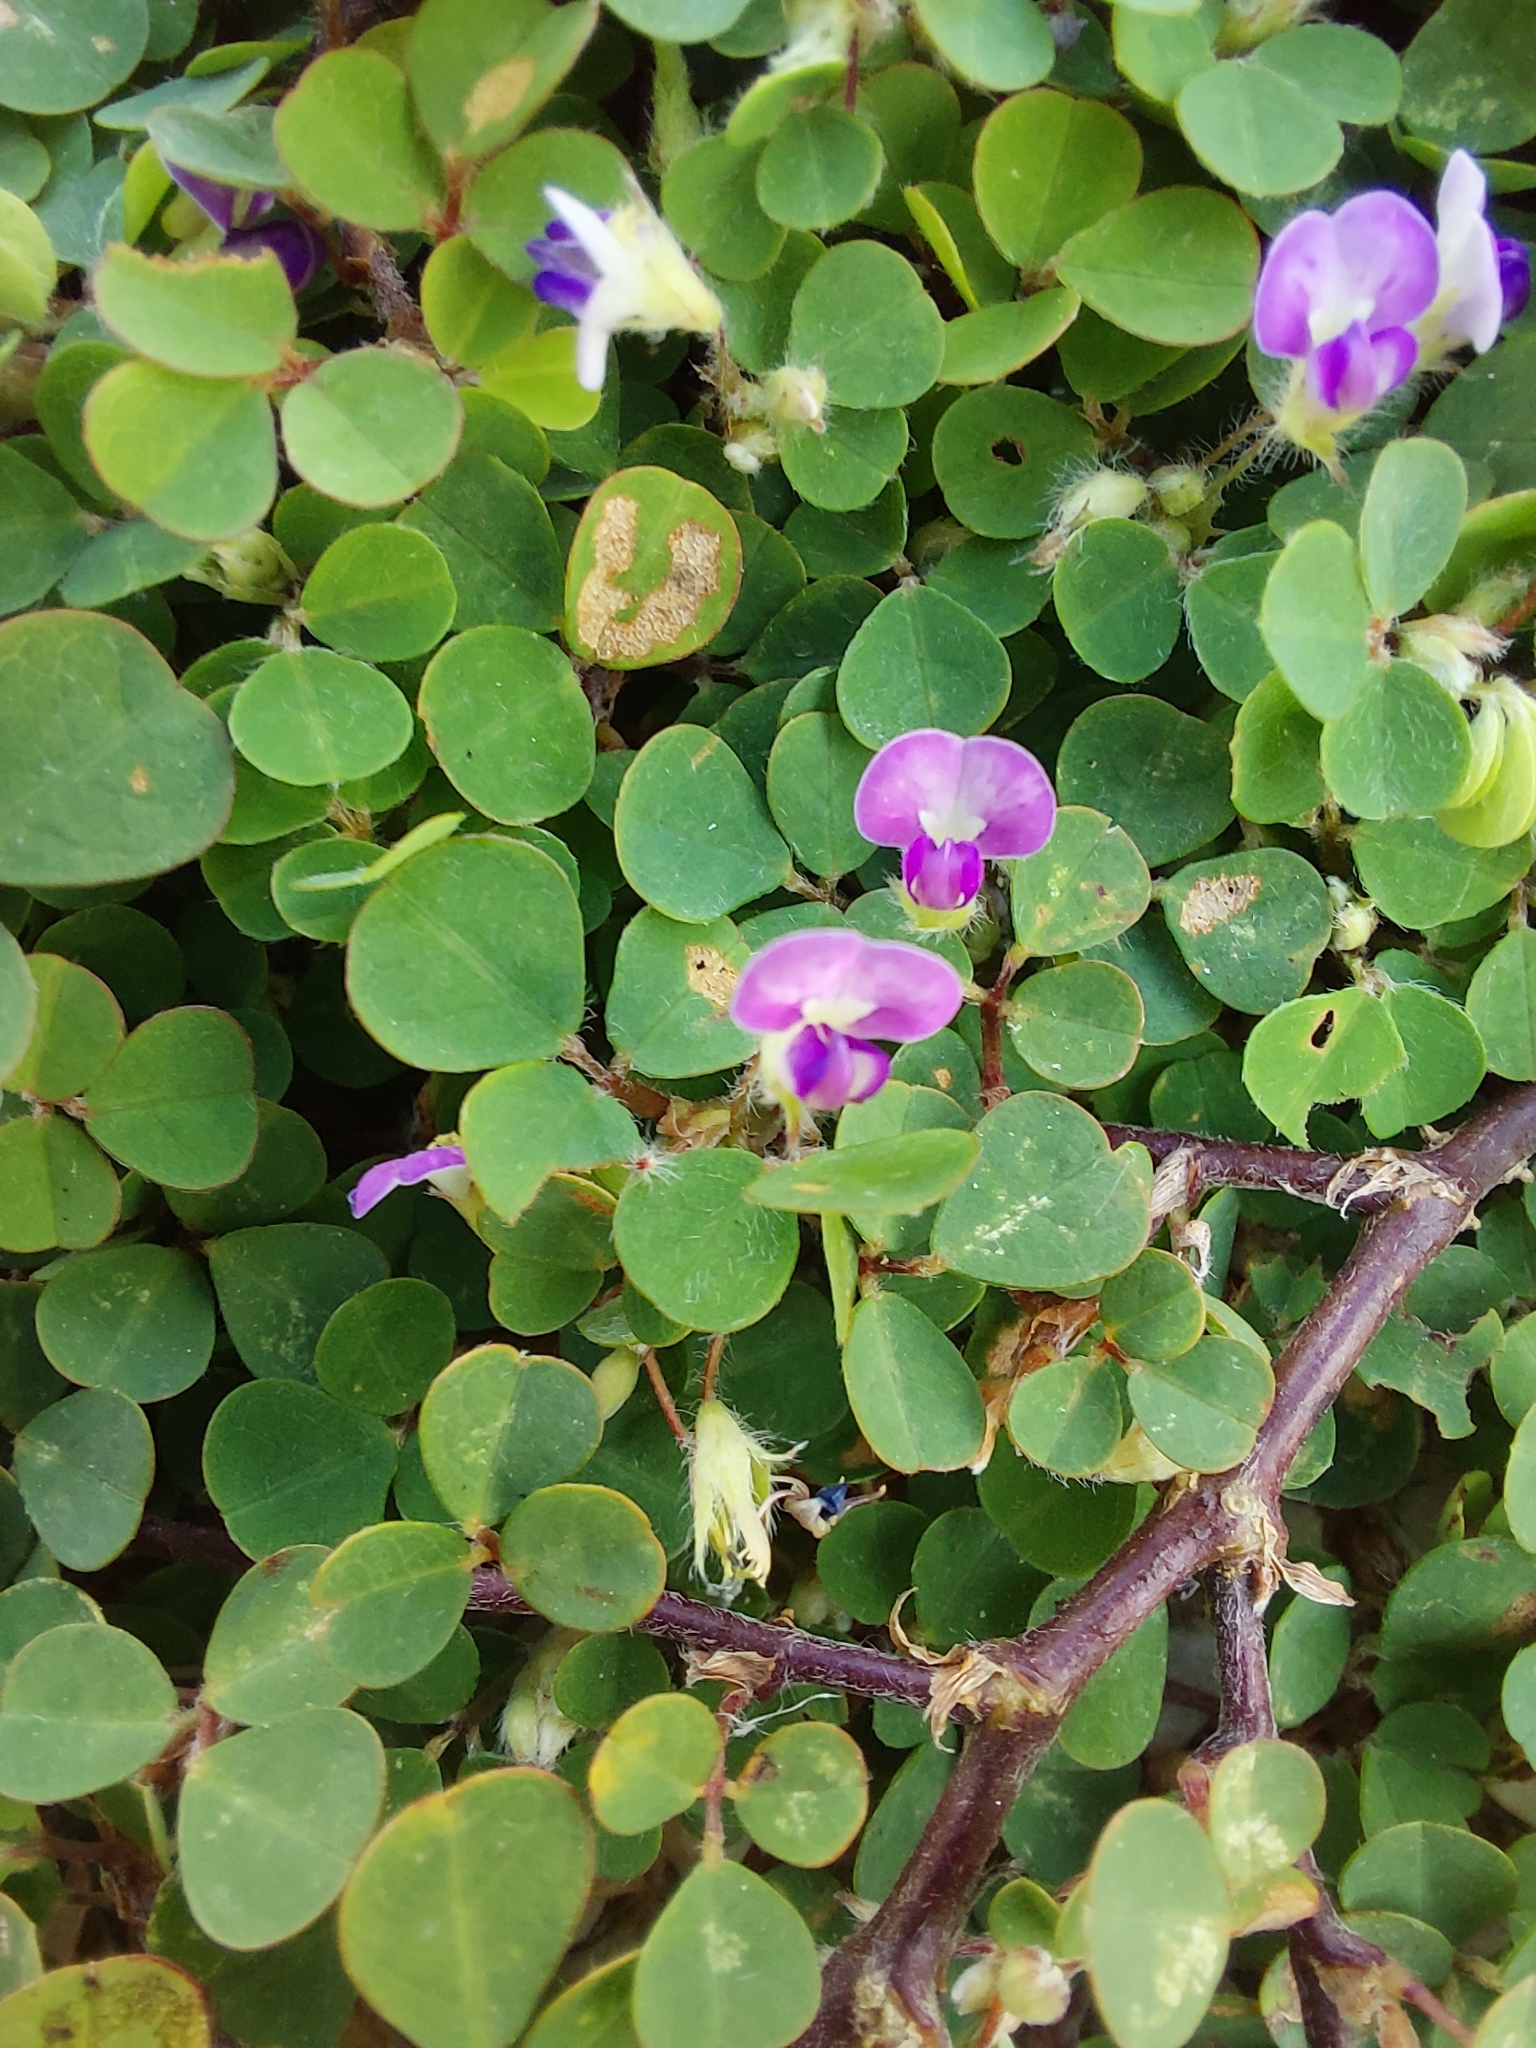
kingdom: Plantae
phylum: Tracheophyta
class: Magnoliopsida
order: Fabales
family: Fabaceae
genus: Grona
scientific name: Grona triflora
